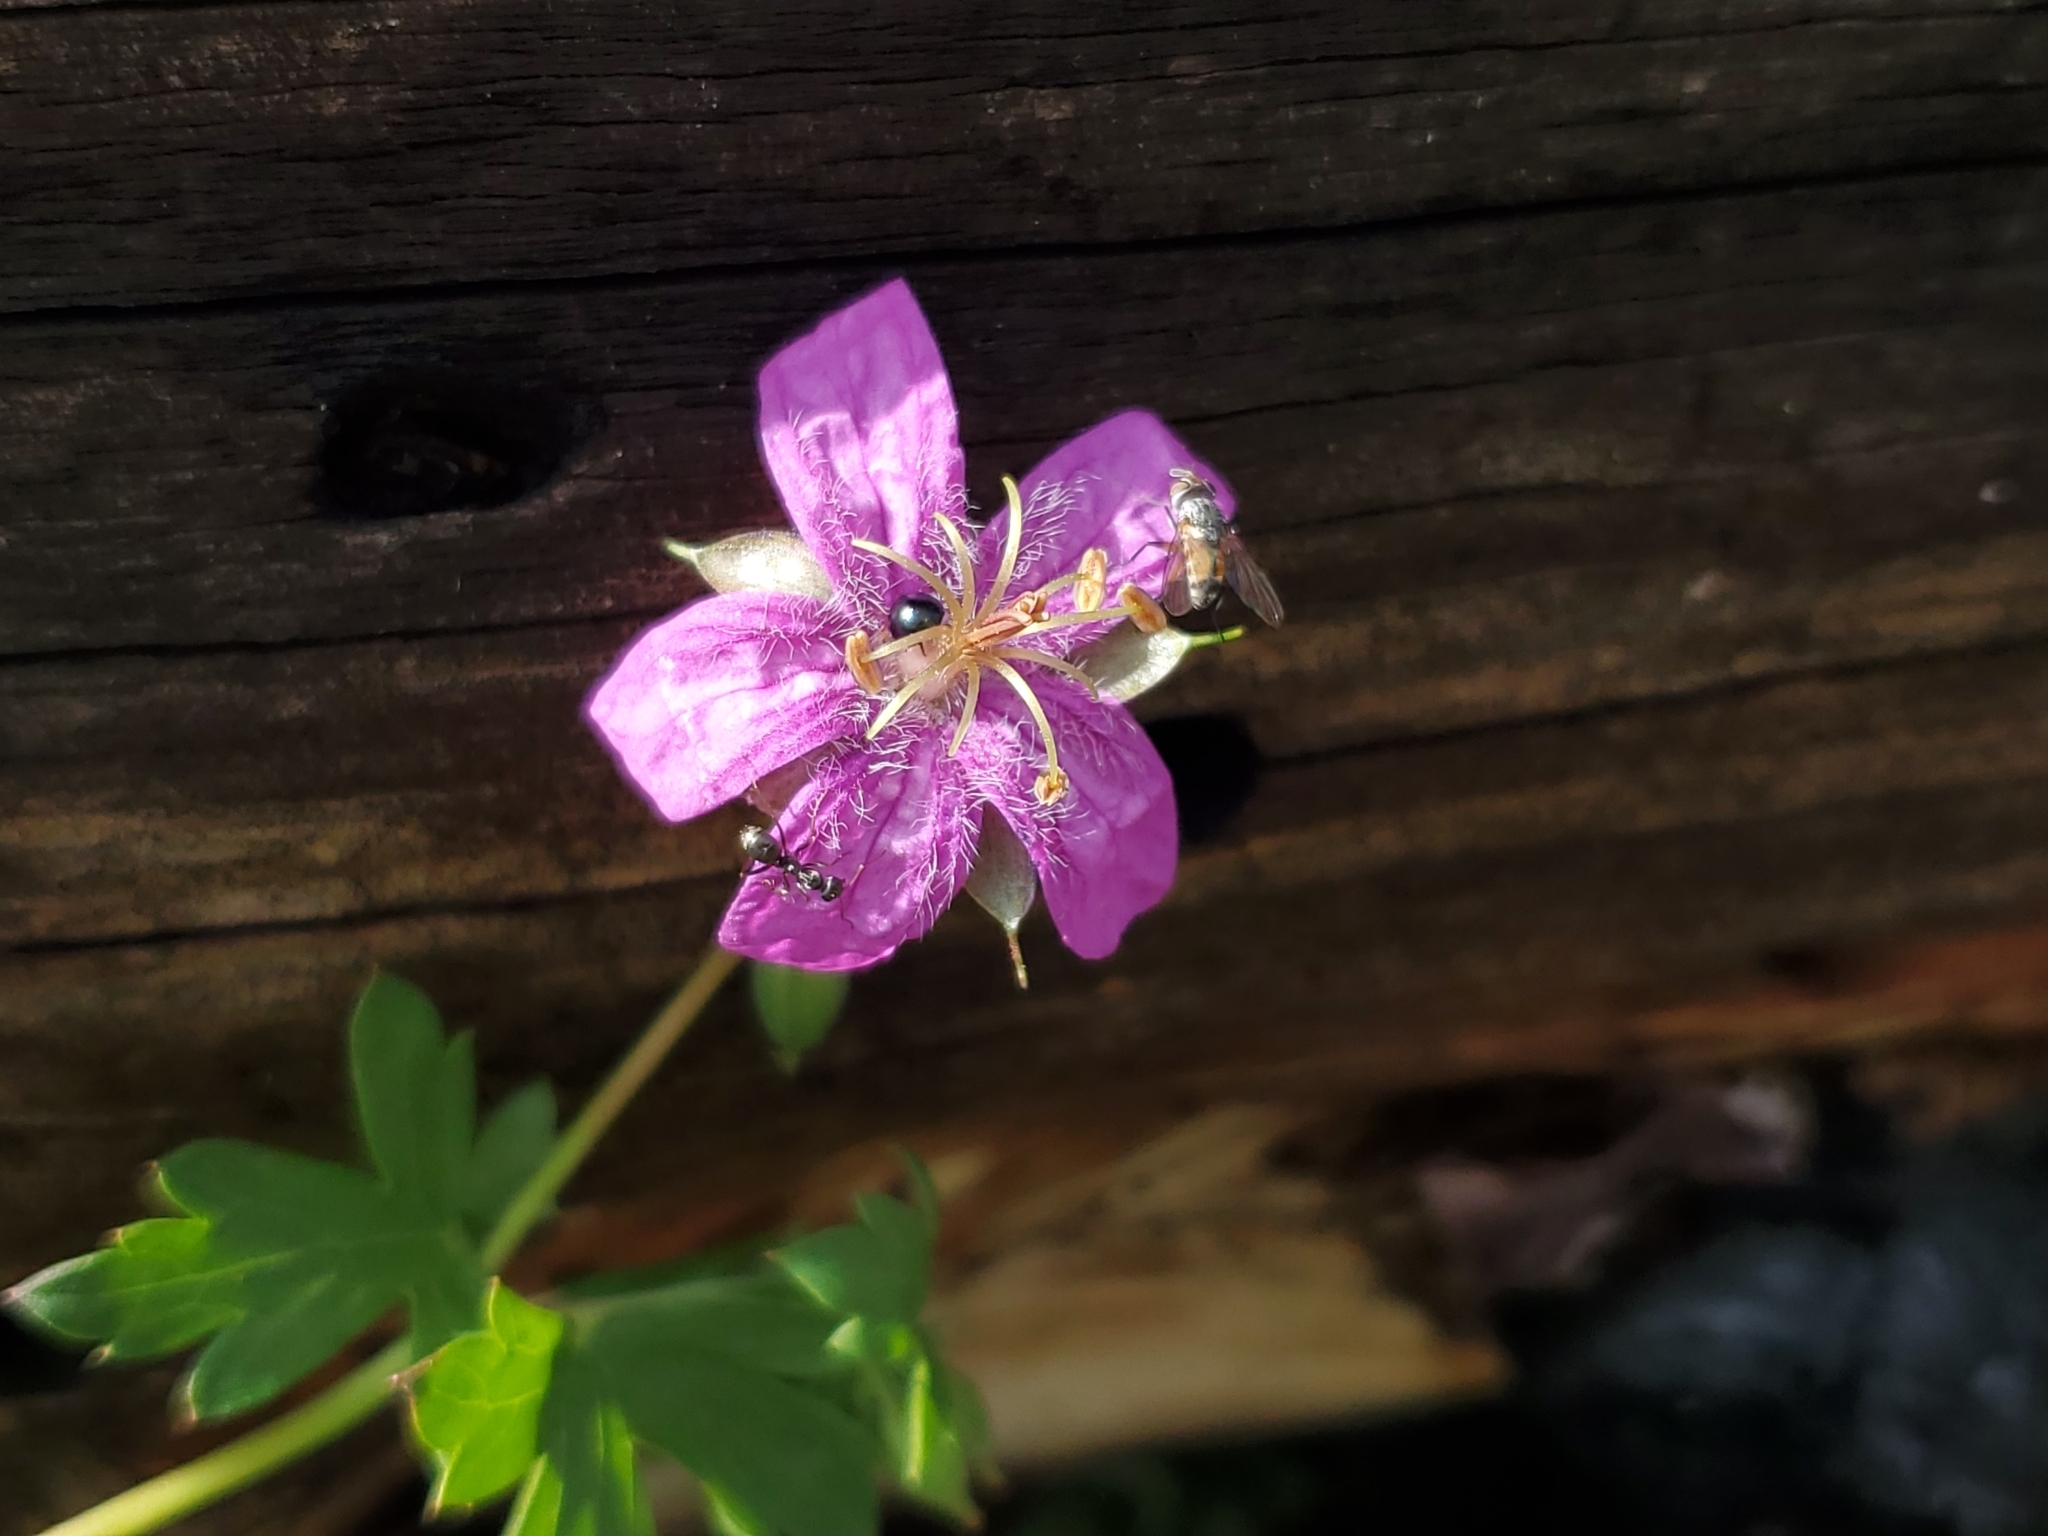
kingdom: Plantae
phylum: Tracheophyta
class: Magnoliopsida
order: Geraniales
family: Geraniaceae
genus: Geranium
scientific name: Geranium caespitosum
